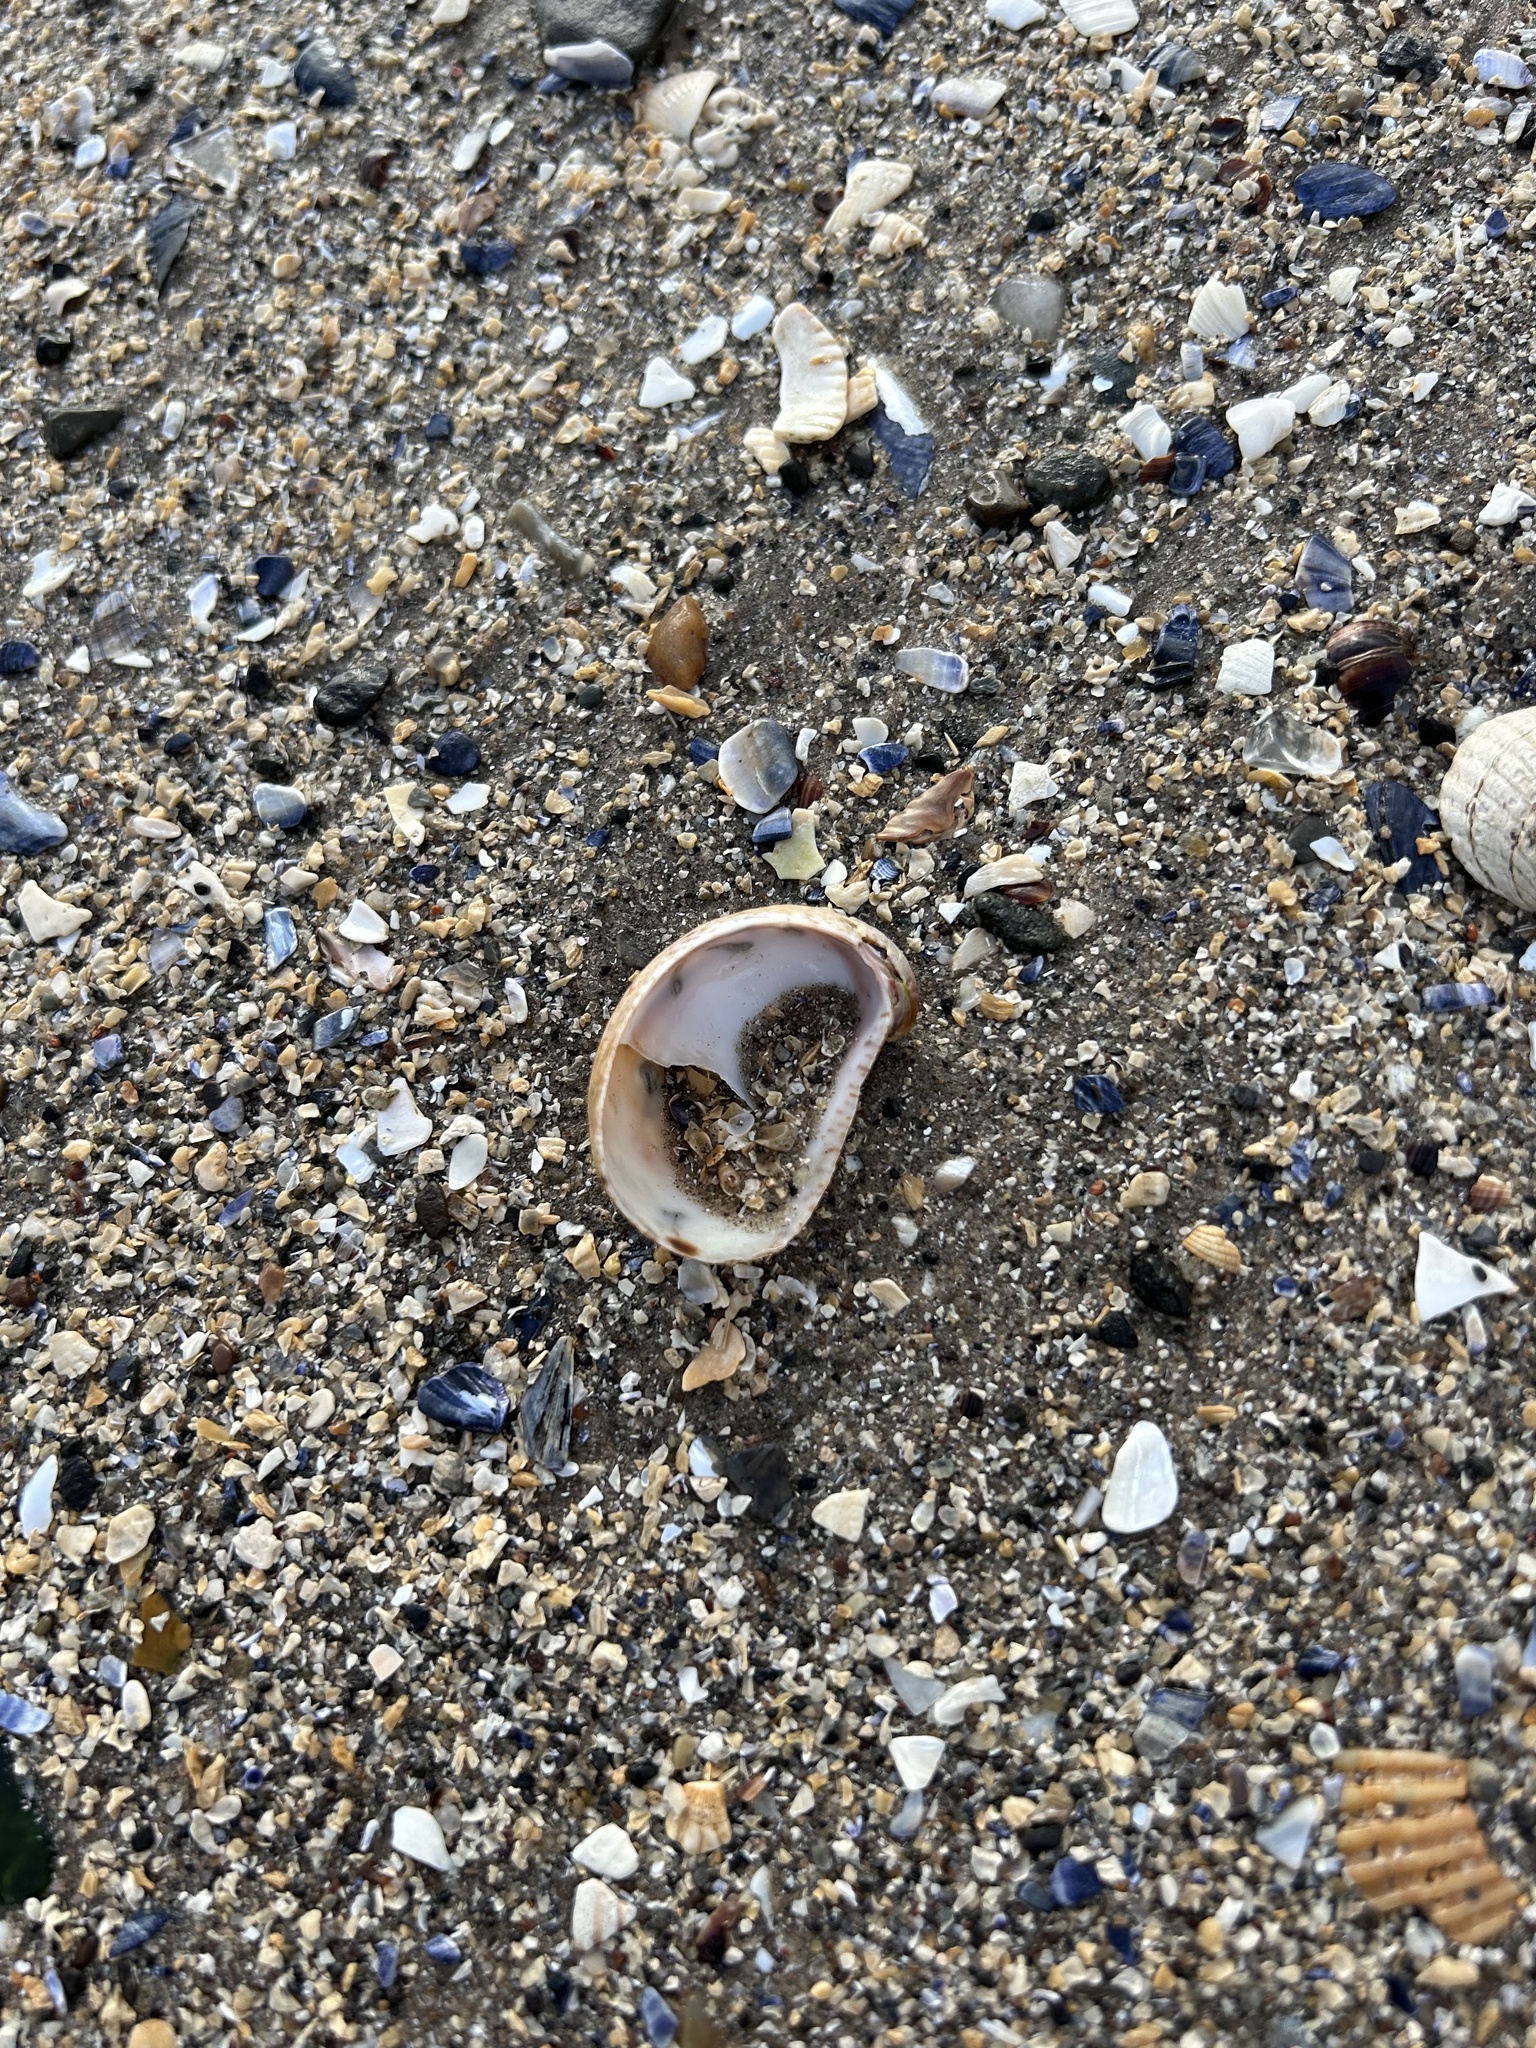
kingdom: Animalia
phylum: Mollusca
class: Gastropoda
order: Littorinimorpha
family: Calyptraeidae
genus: Crepidula
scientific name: Crepidula fornicata
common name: Slipper limpet
